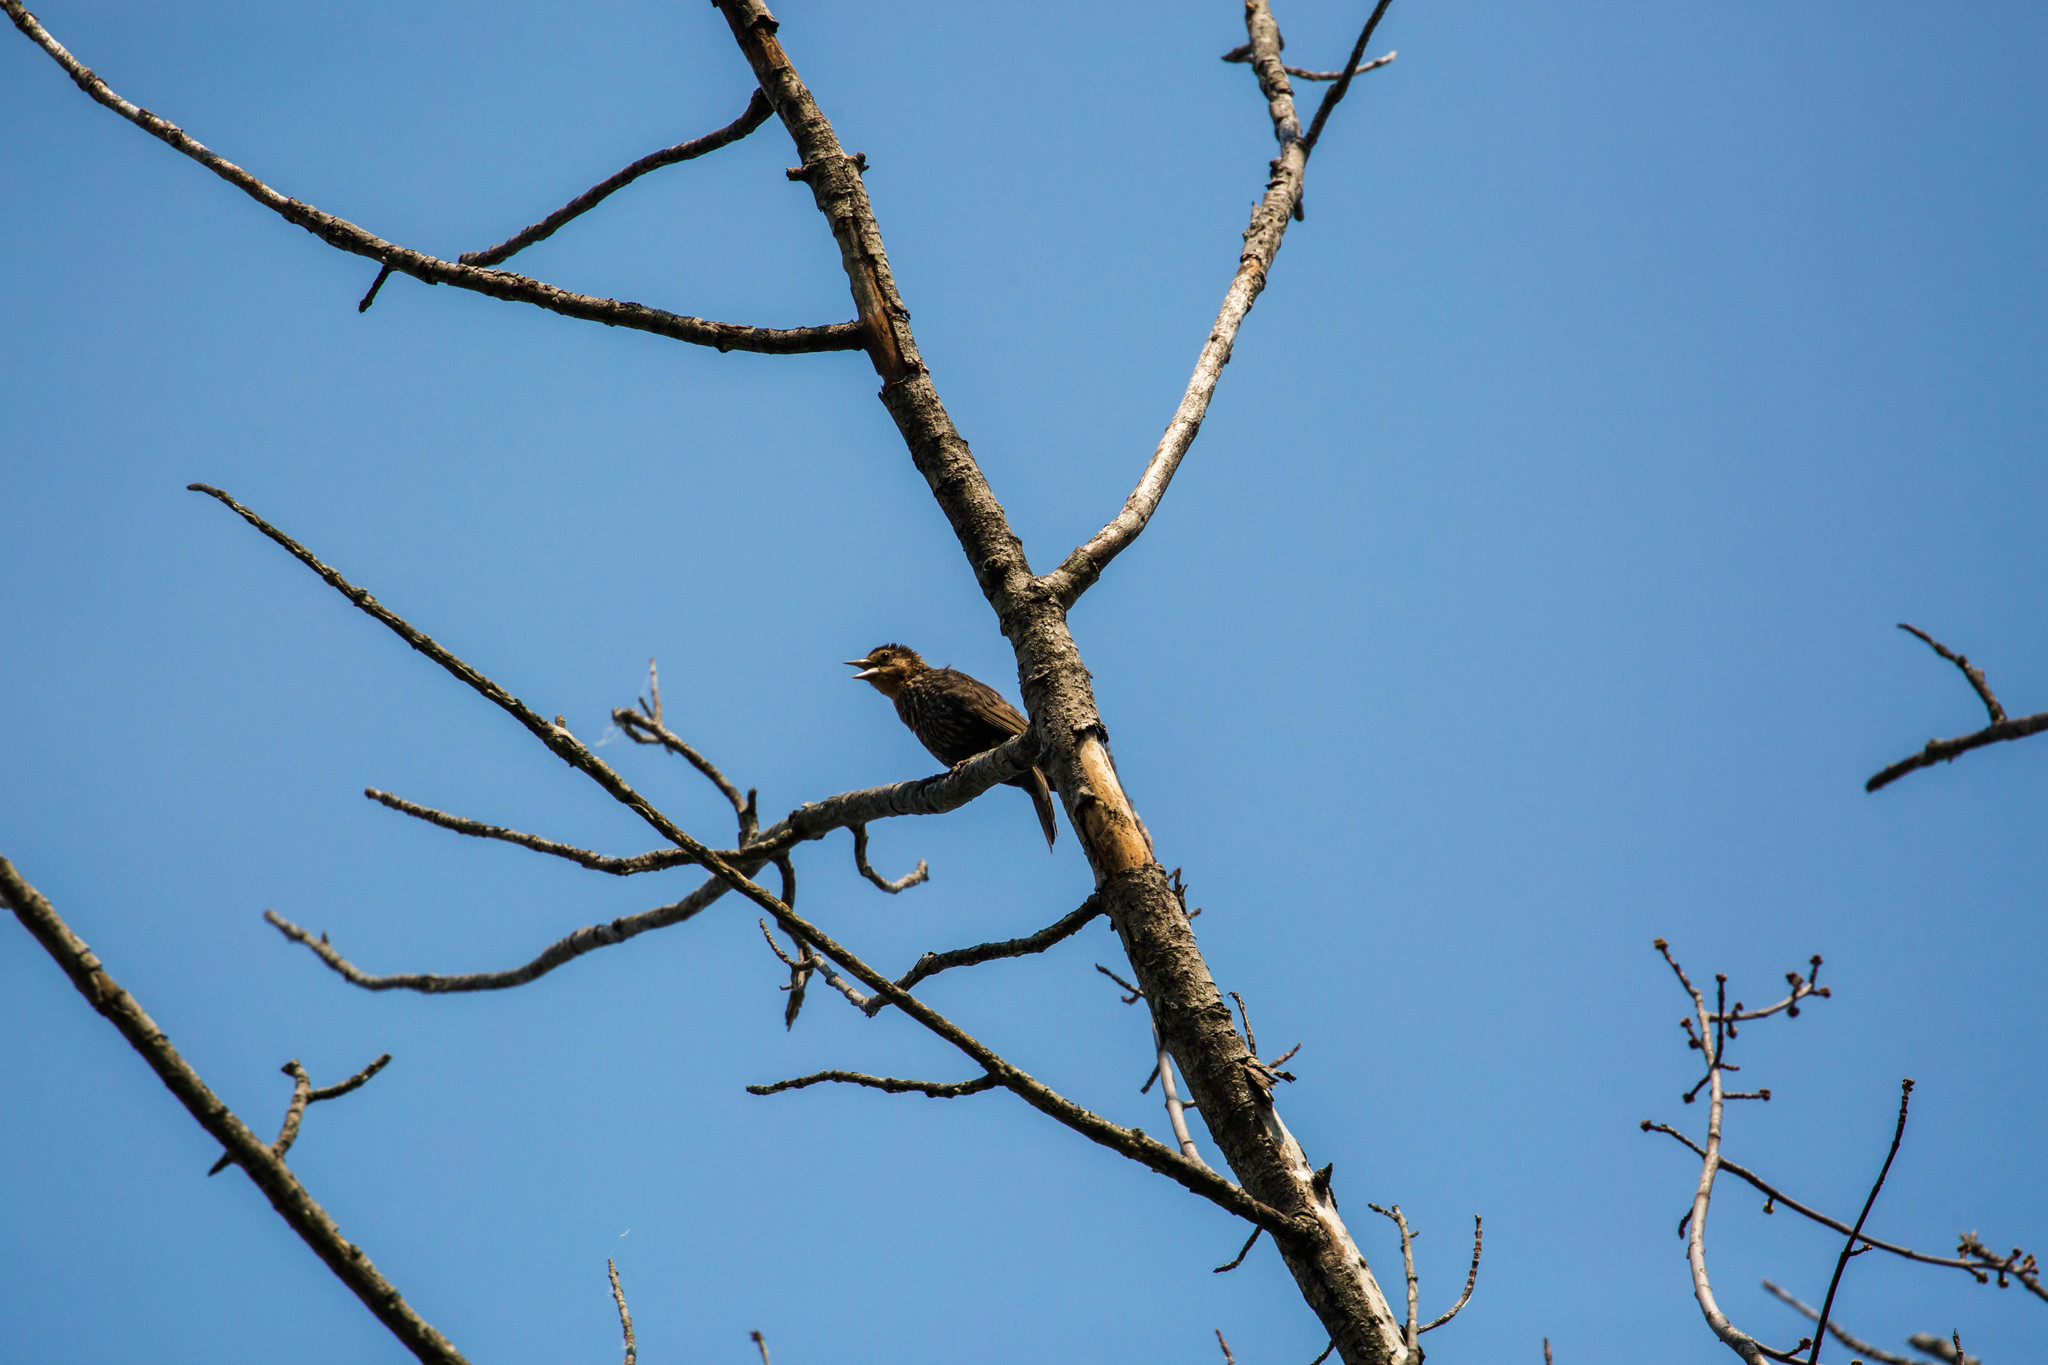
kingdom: Animalia
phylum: Chordata
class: Aves
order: Passeriformes
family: Sturnidae
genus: Sturnus
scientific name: Sturnus vulgaris
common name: Common starling
